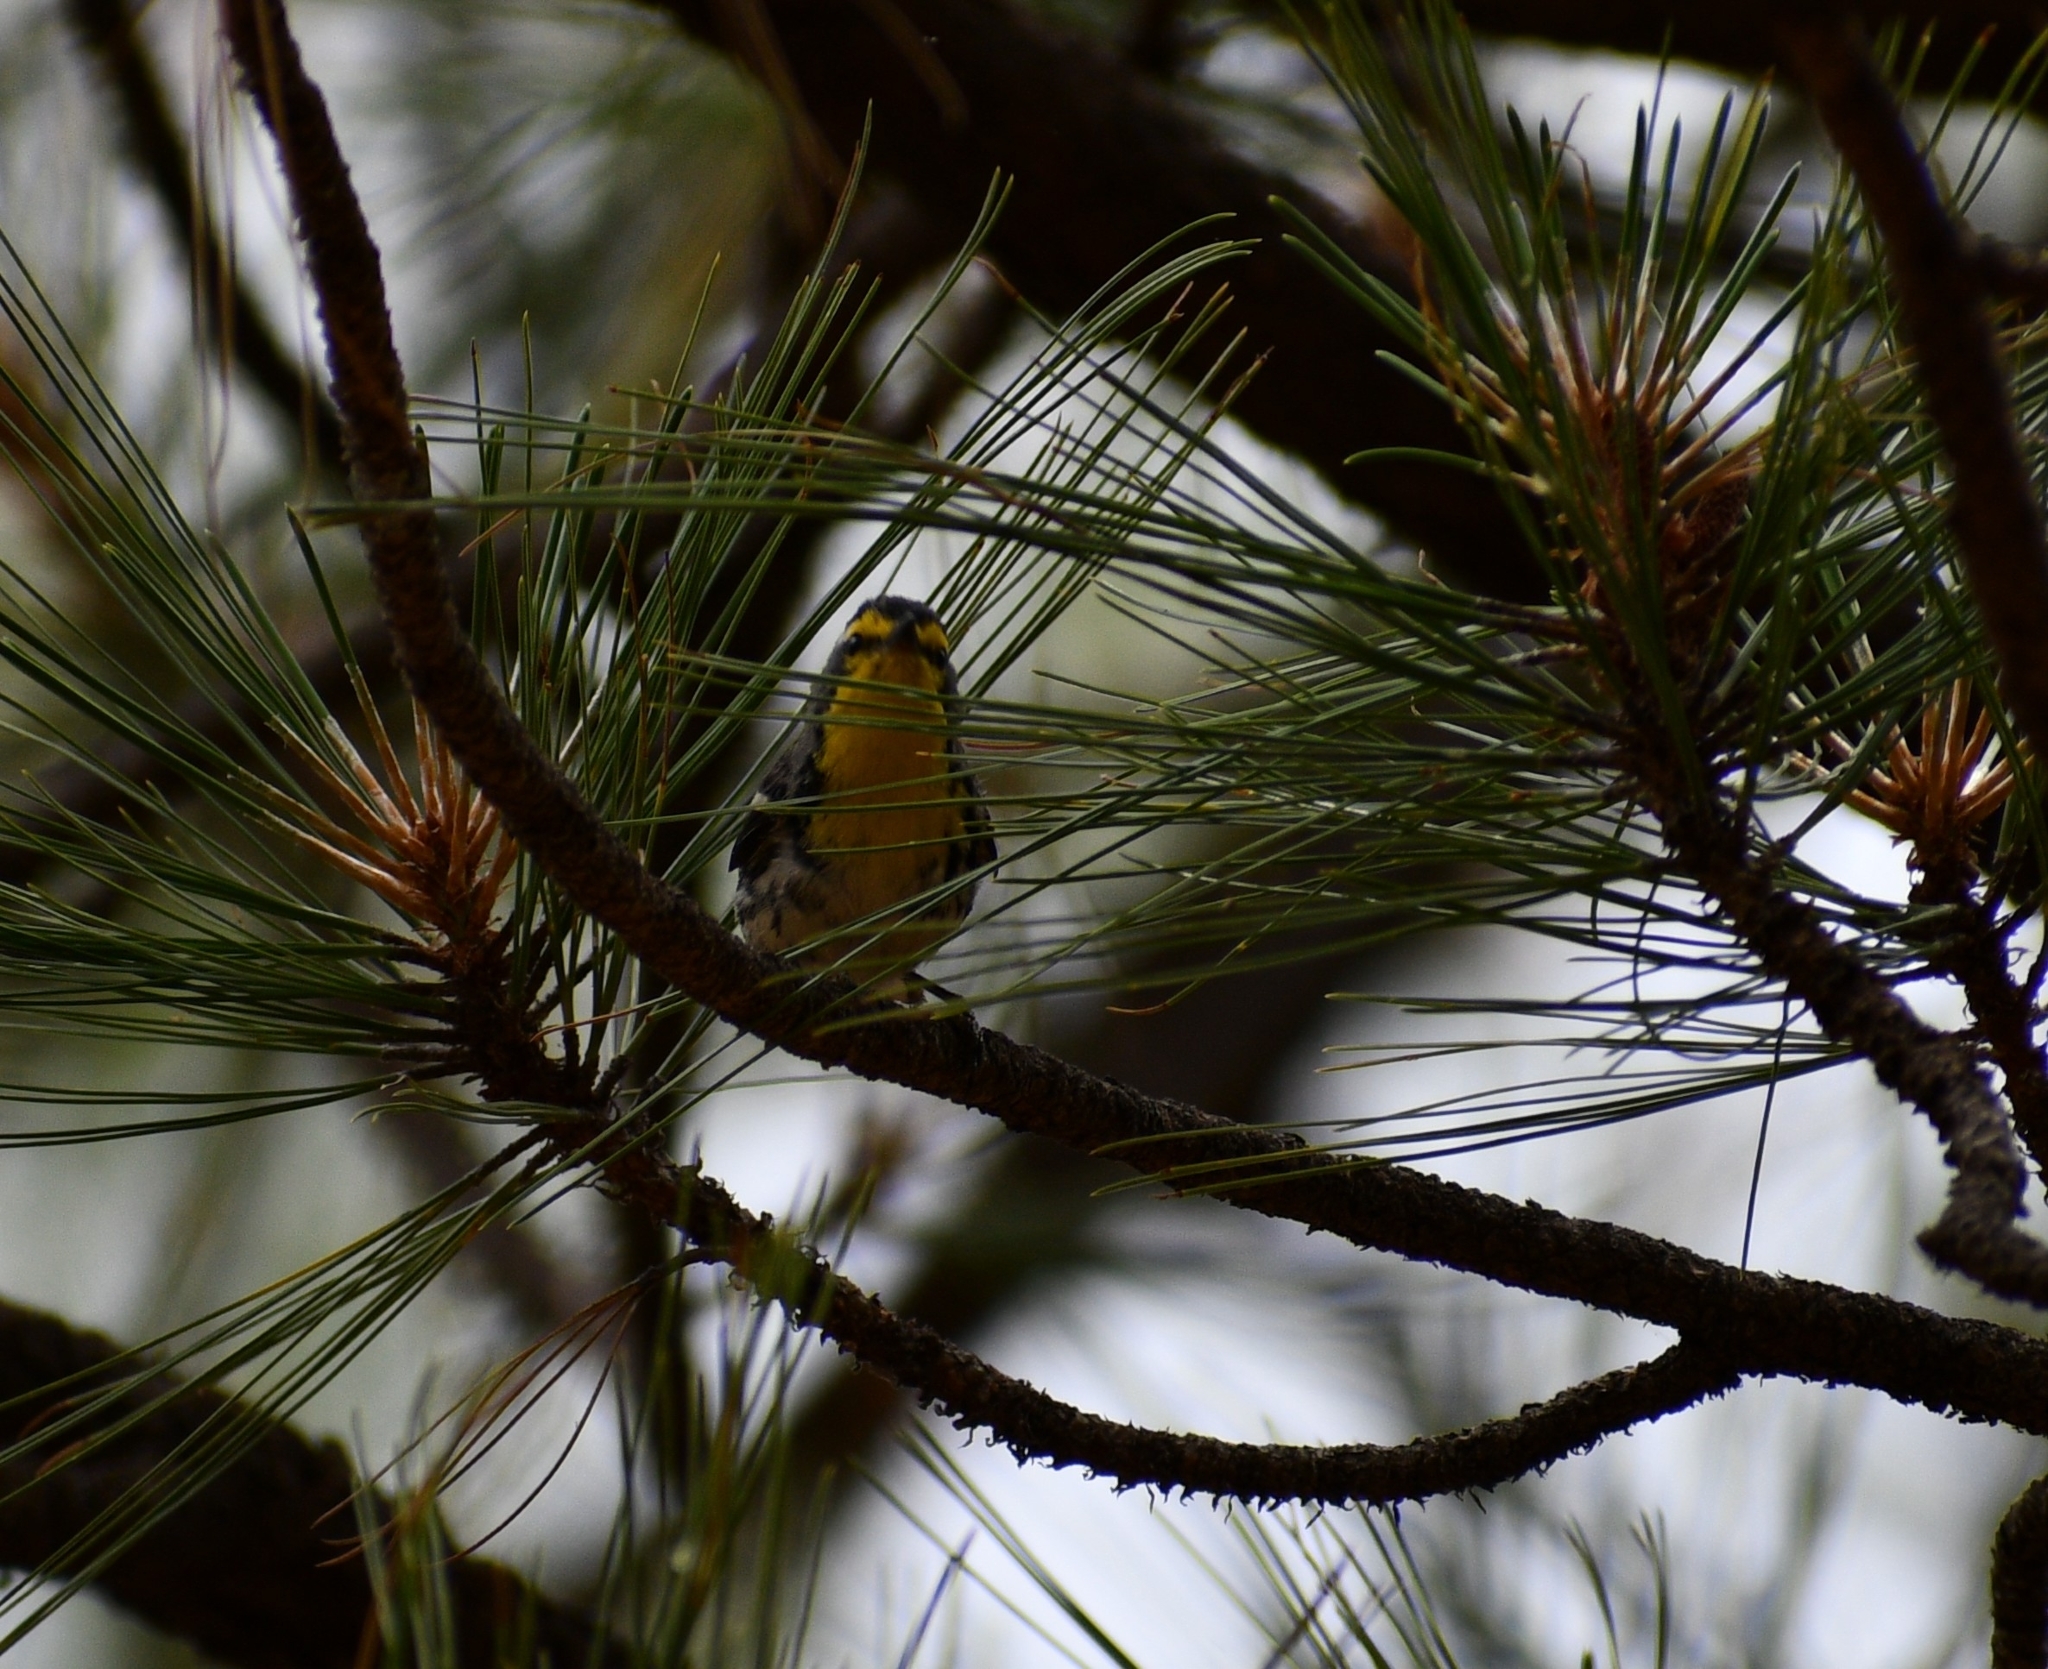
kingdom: Animalia
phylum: Chordata
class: Aves
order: Passeriformes
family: Parulidae
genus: Setophaga
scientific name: Setophaga graciae
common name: Grace's warbler
